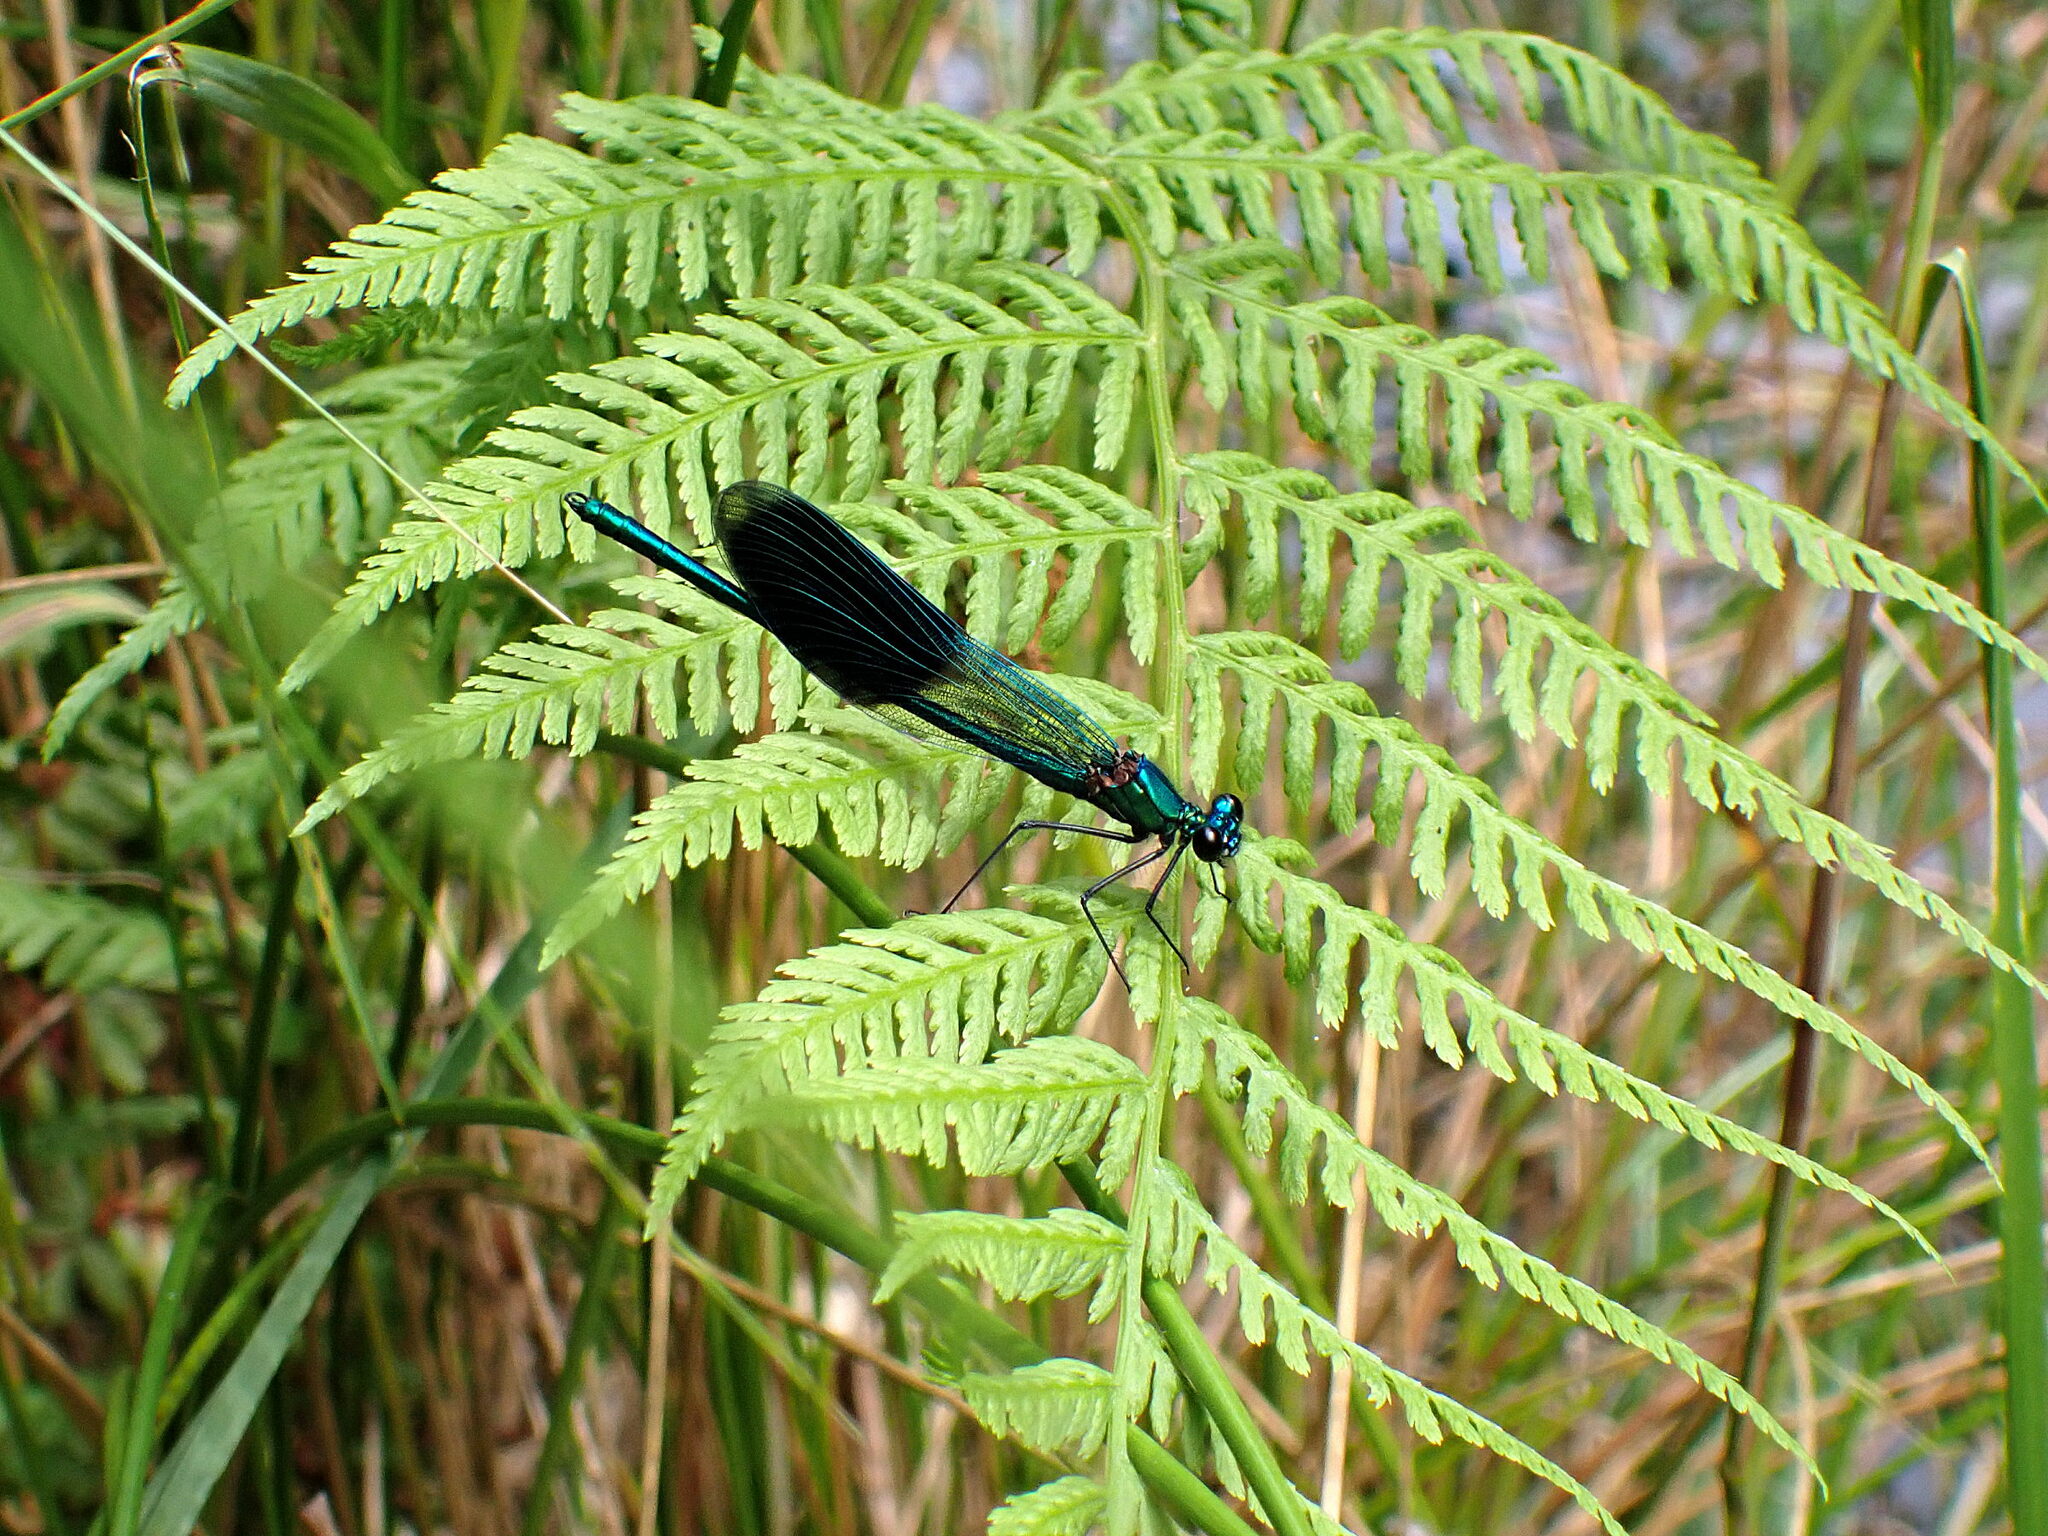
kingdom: Animalia
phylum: Arthropoda
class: Insecta
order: Odonata
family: Calopterygidae
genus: Calopteryx
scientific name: Calopteryx splendens
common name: Banded demoiselle
